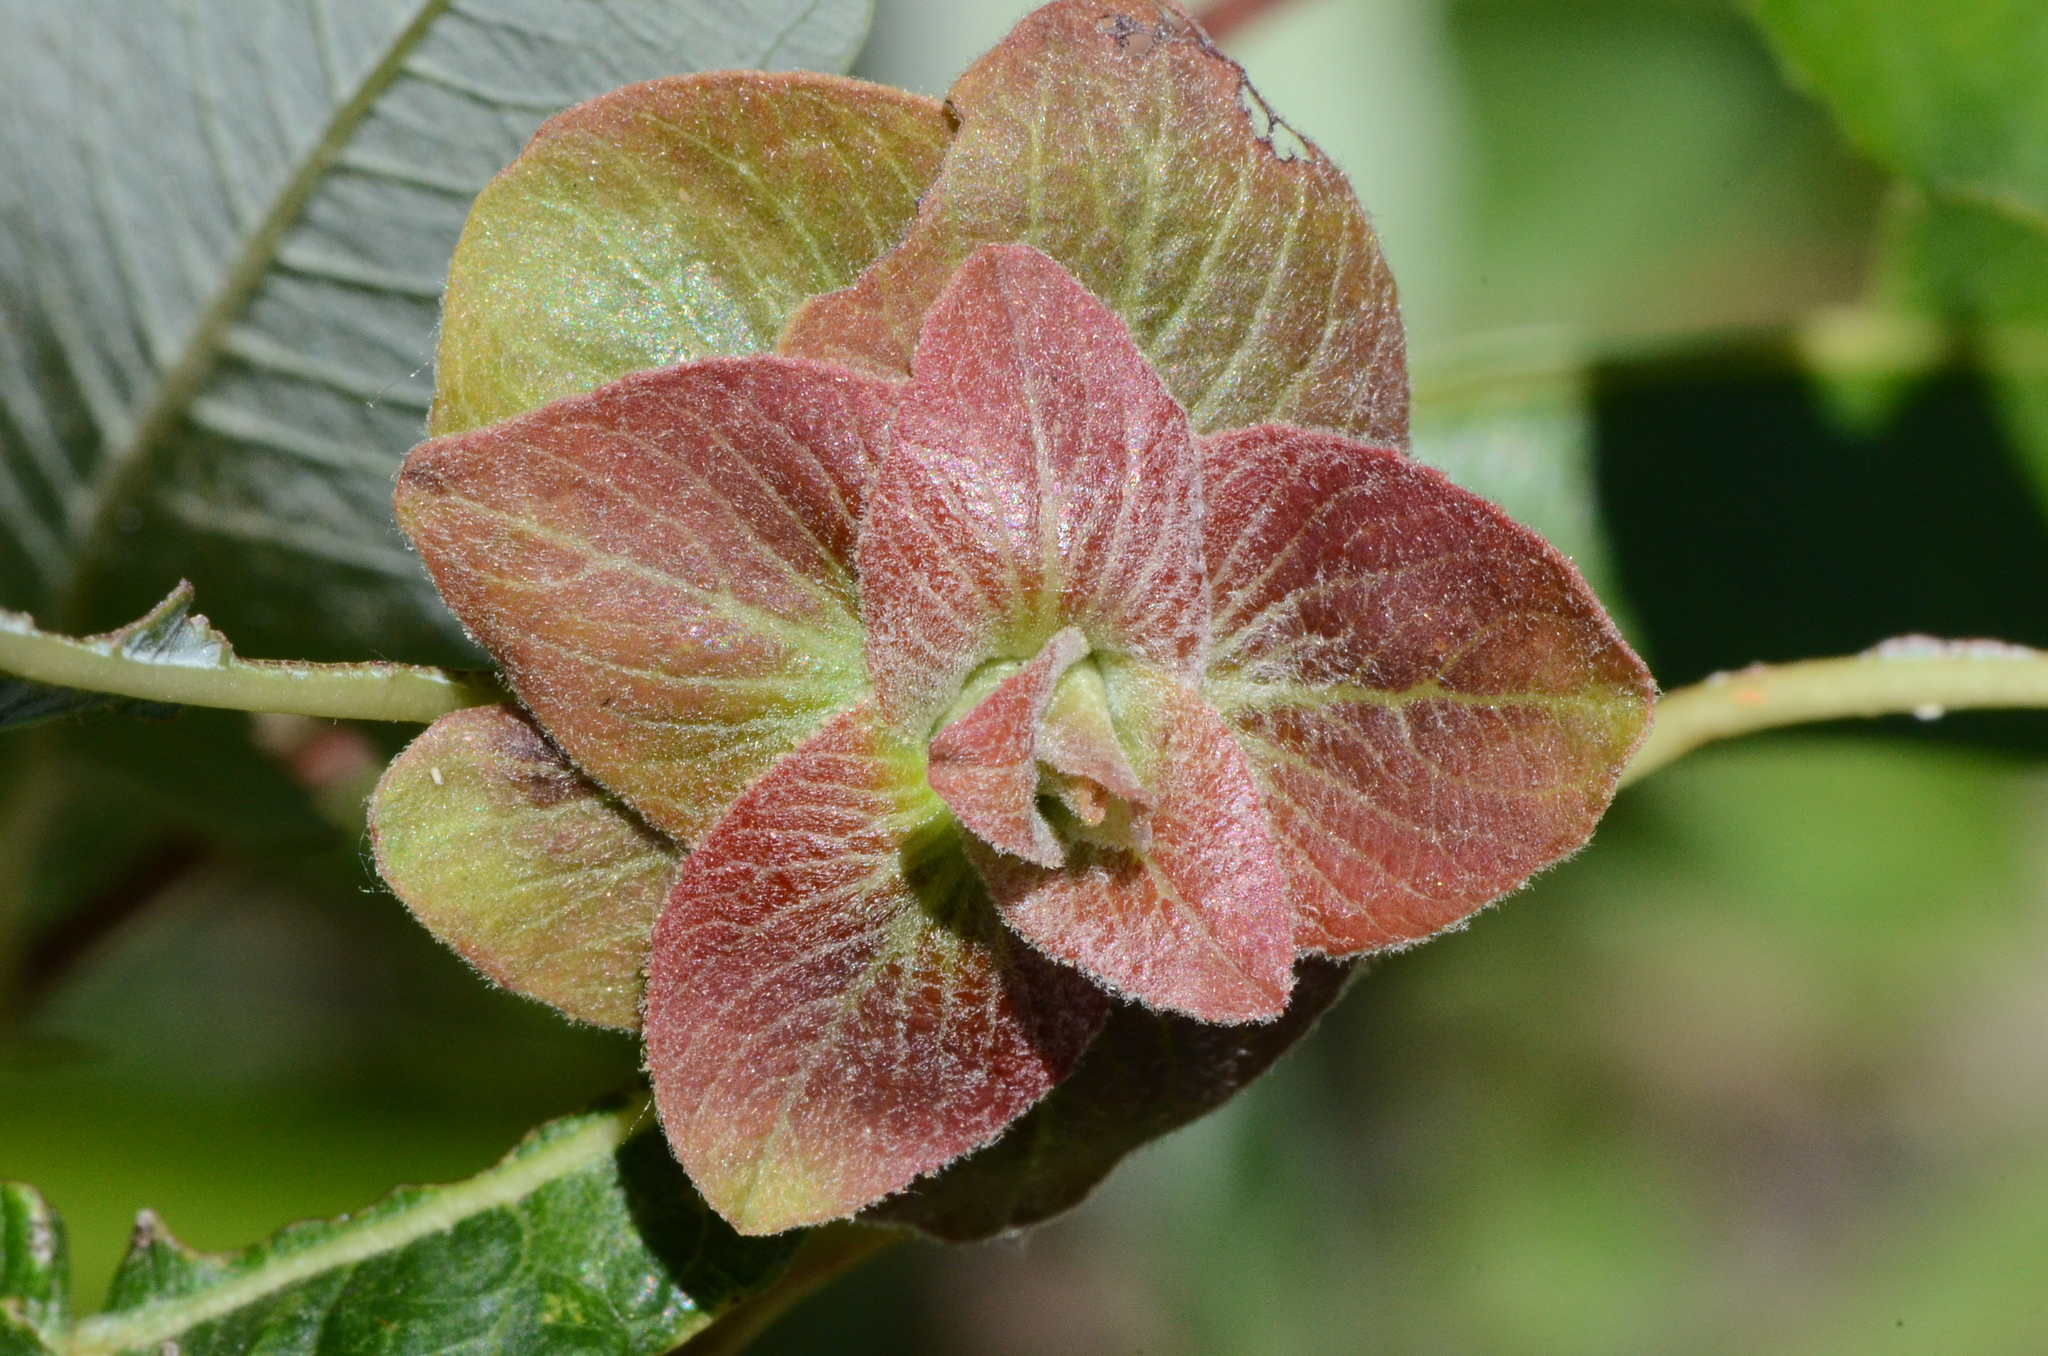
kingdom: Animalia
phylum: Arthropoda
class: Insecta
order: Diptera
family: Cecidomyiidae
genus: Rabdophaga
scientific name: Rabdophaga salicisbrassicoides
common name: Willow cabbagegall midge
